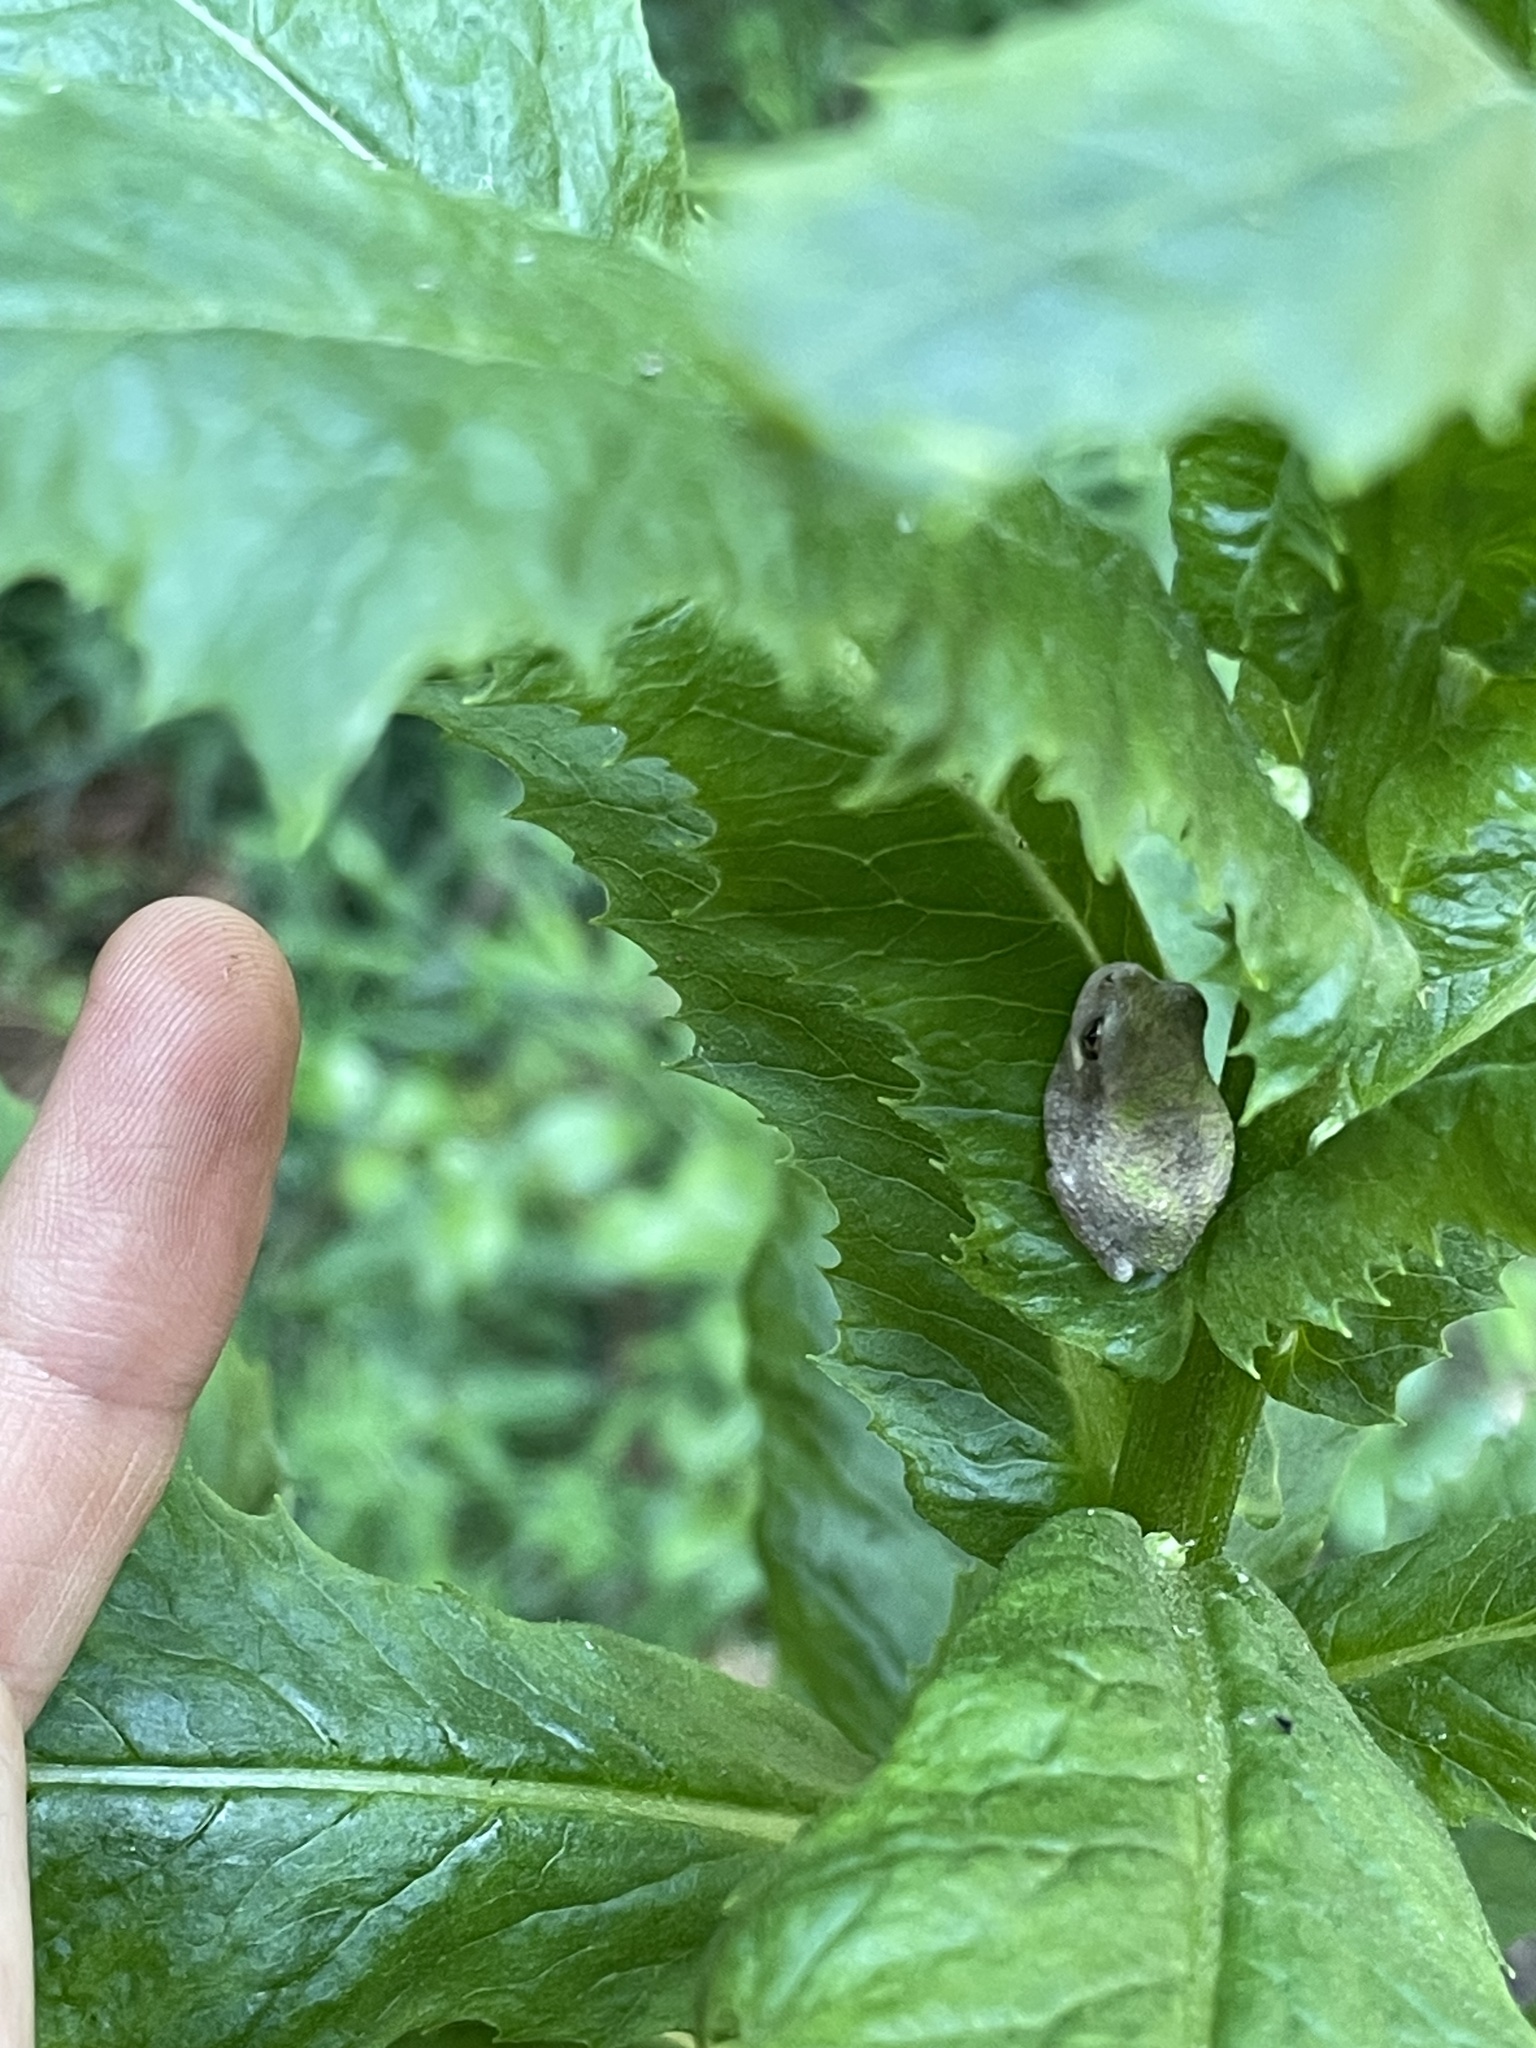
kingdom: Animalia
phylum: Chordata
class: Amphibia
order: Anura
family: Hylidae
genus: Dryophytes
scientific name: Dryophytes chrysoscelis
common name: Cope's gray treefrog
